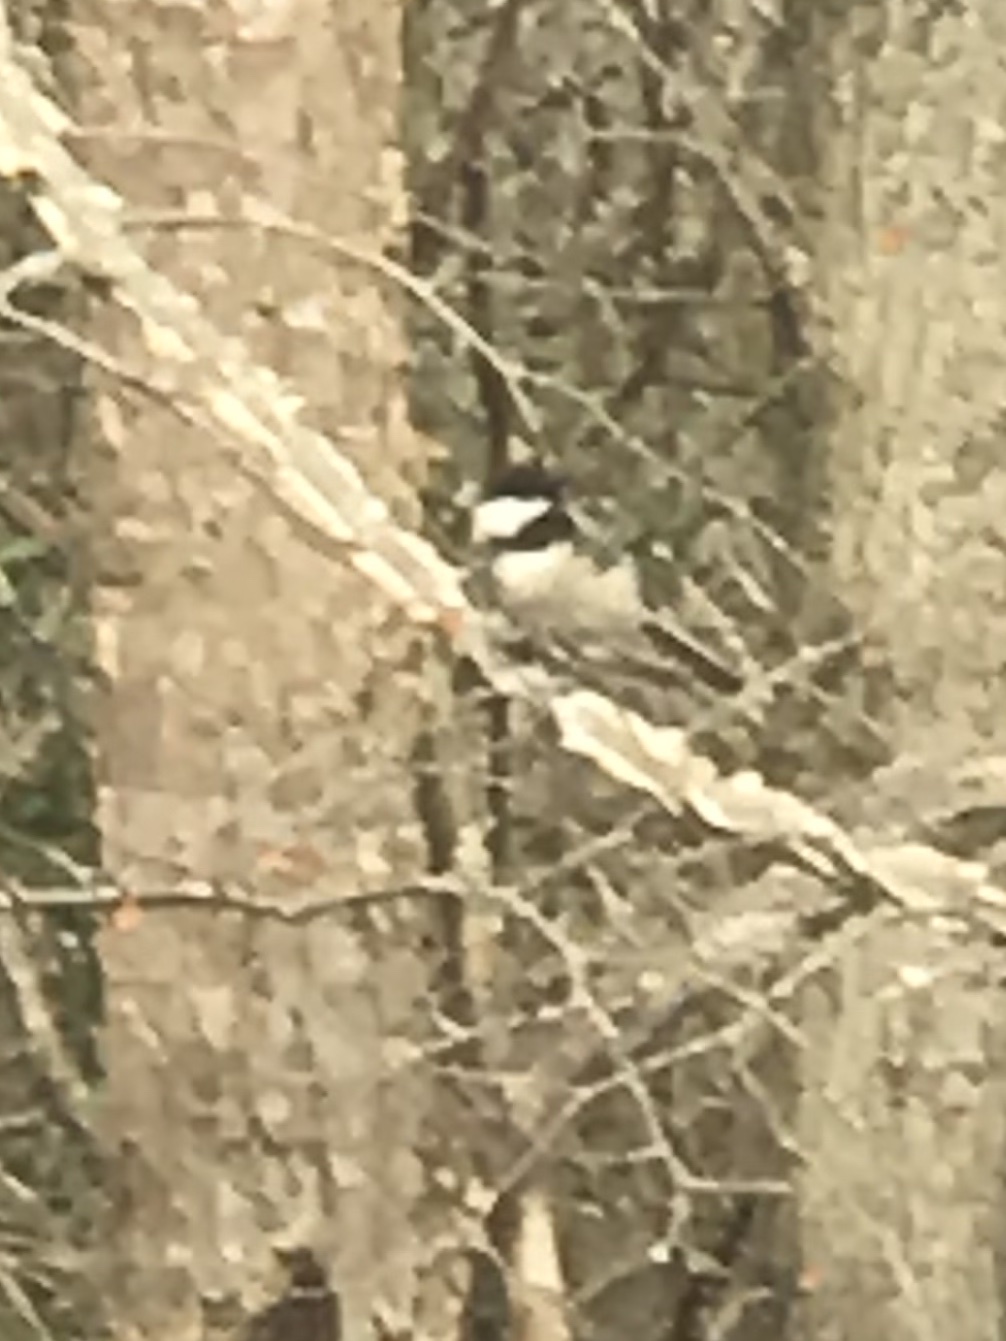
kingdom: Animalia
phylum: Chordata
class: Aves
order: Passeriformes
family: Paridae
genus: Poecile
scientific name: Poecile carolinensis
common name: Carolina chickadee
